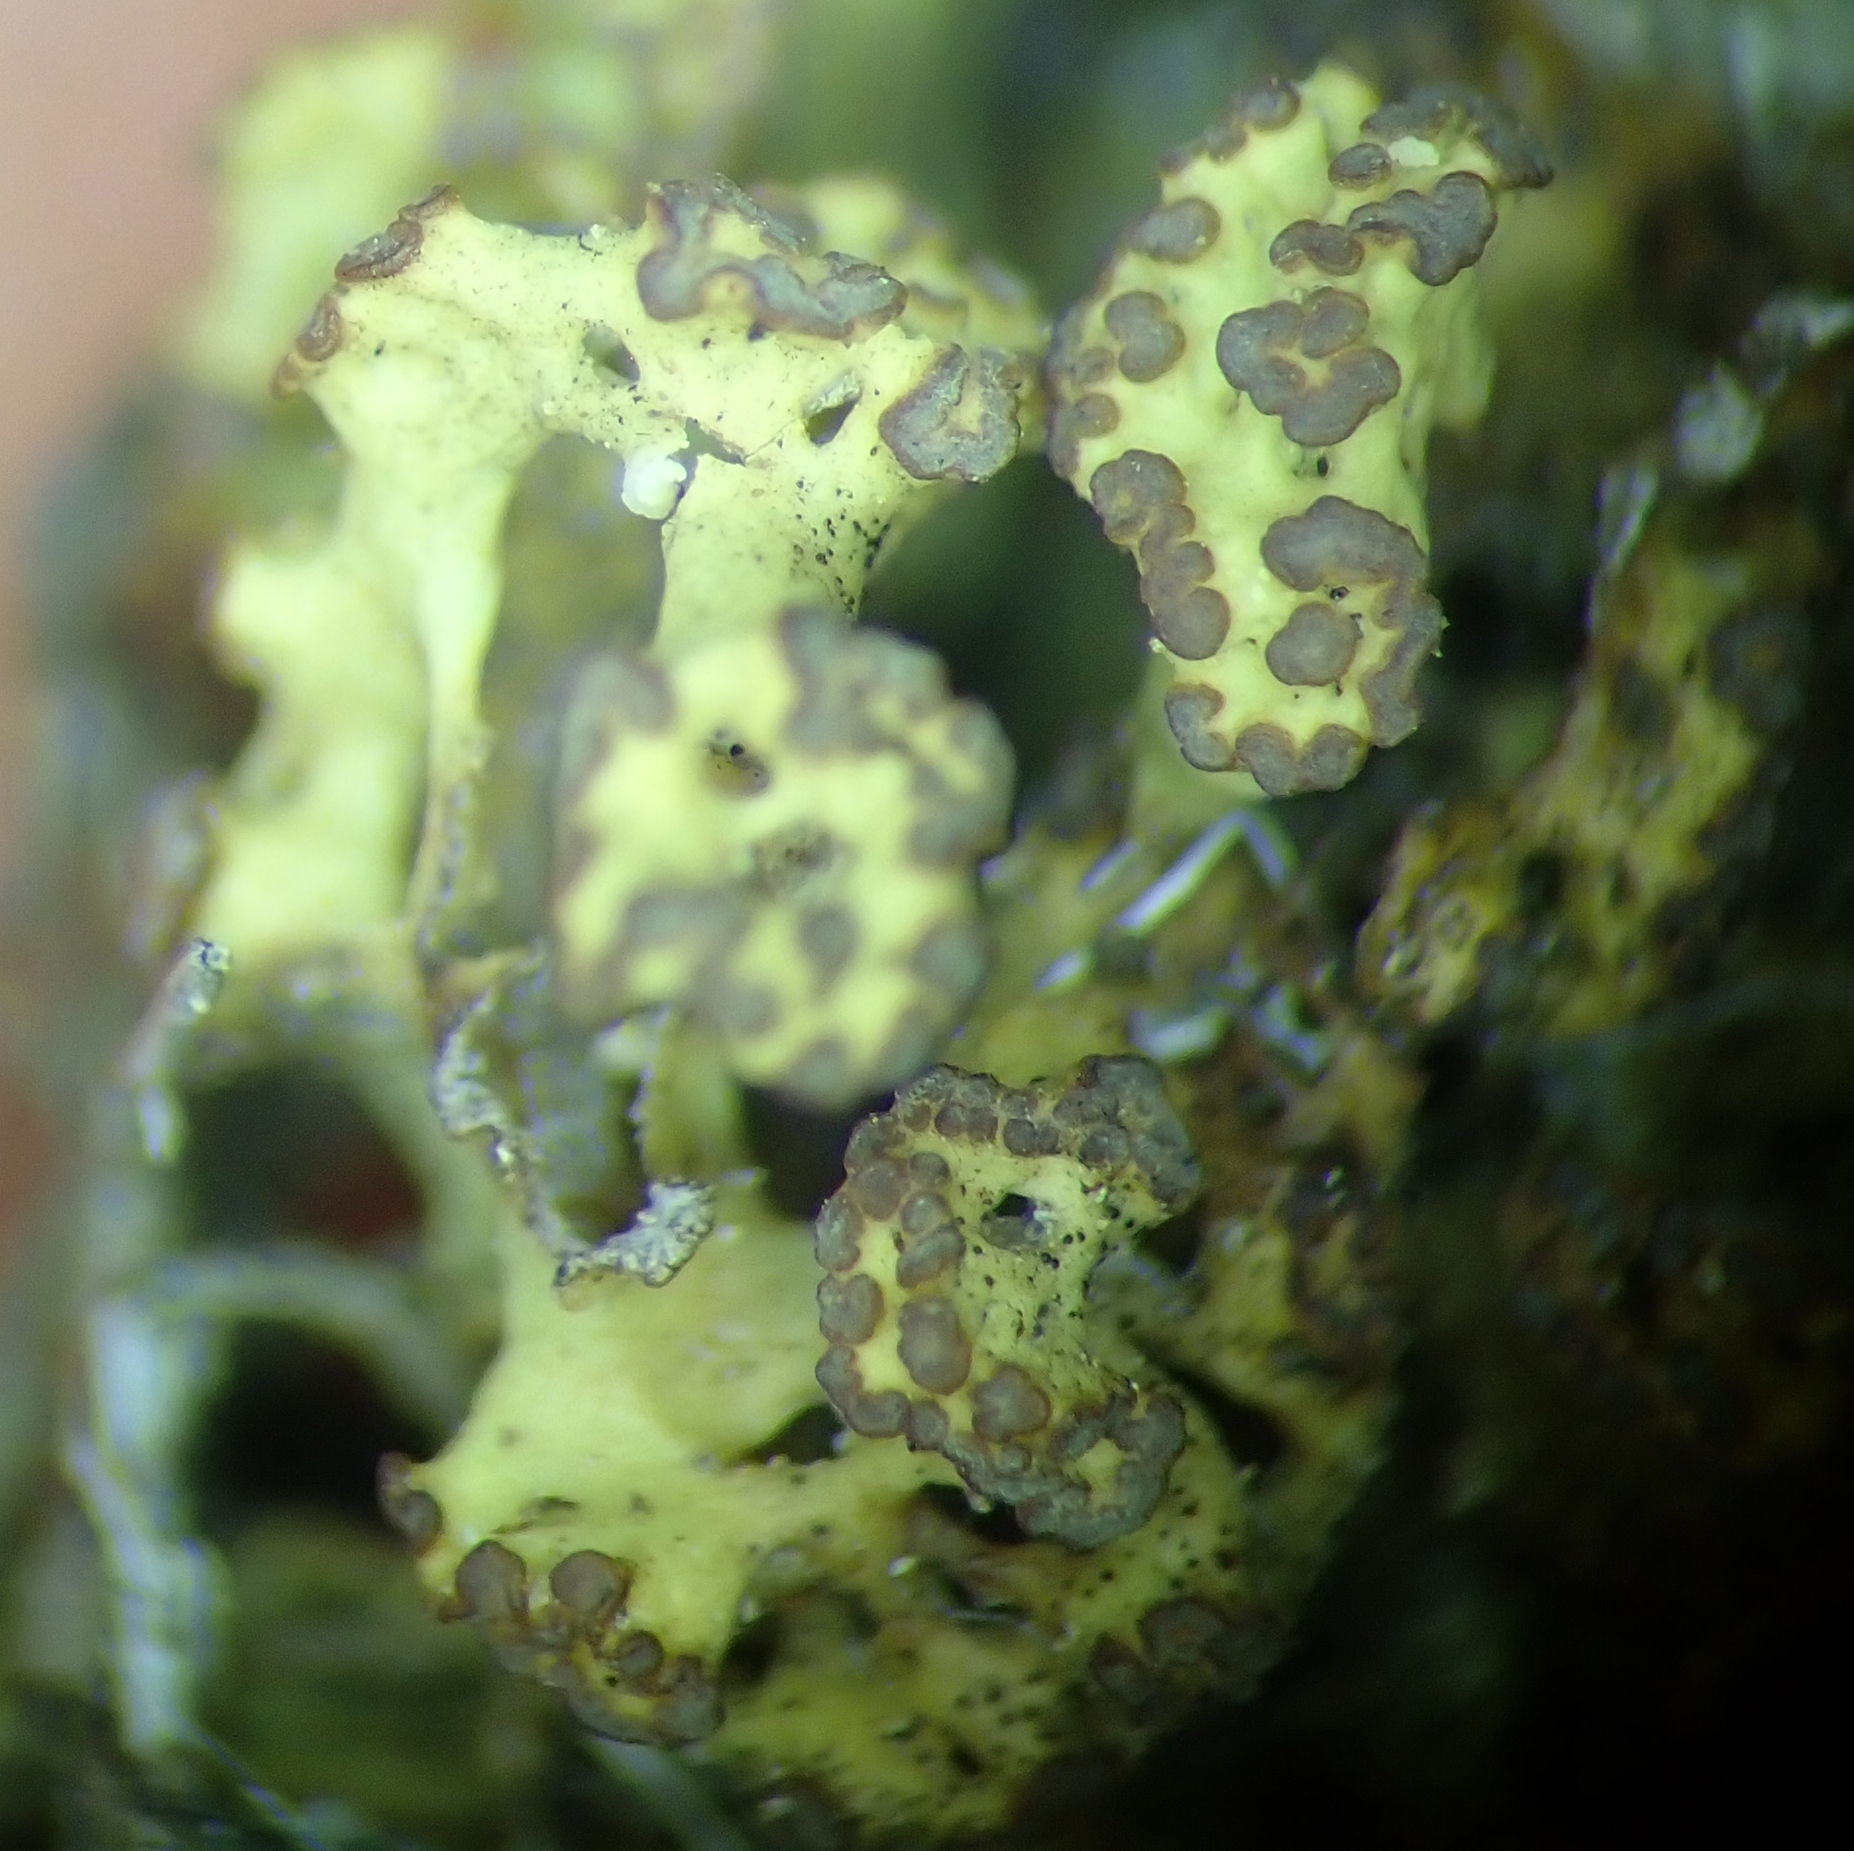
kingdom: Fungi
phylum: Ascomycota
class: Lecanoromycetes
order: Lecanorales
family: Cladoniaceae
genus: Notocladonia
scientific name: Notocladonia cochleata
